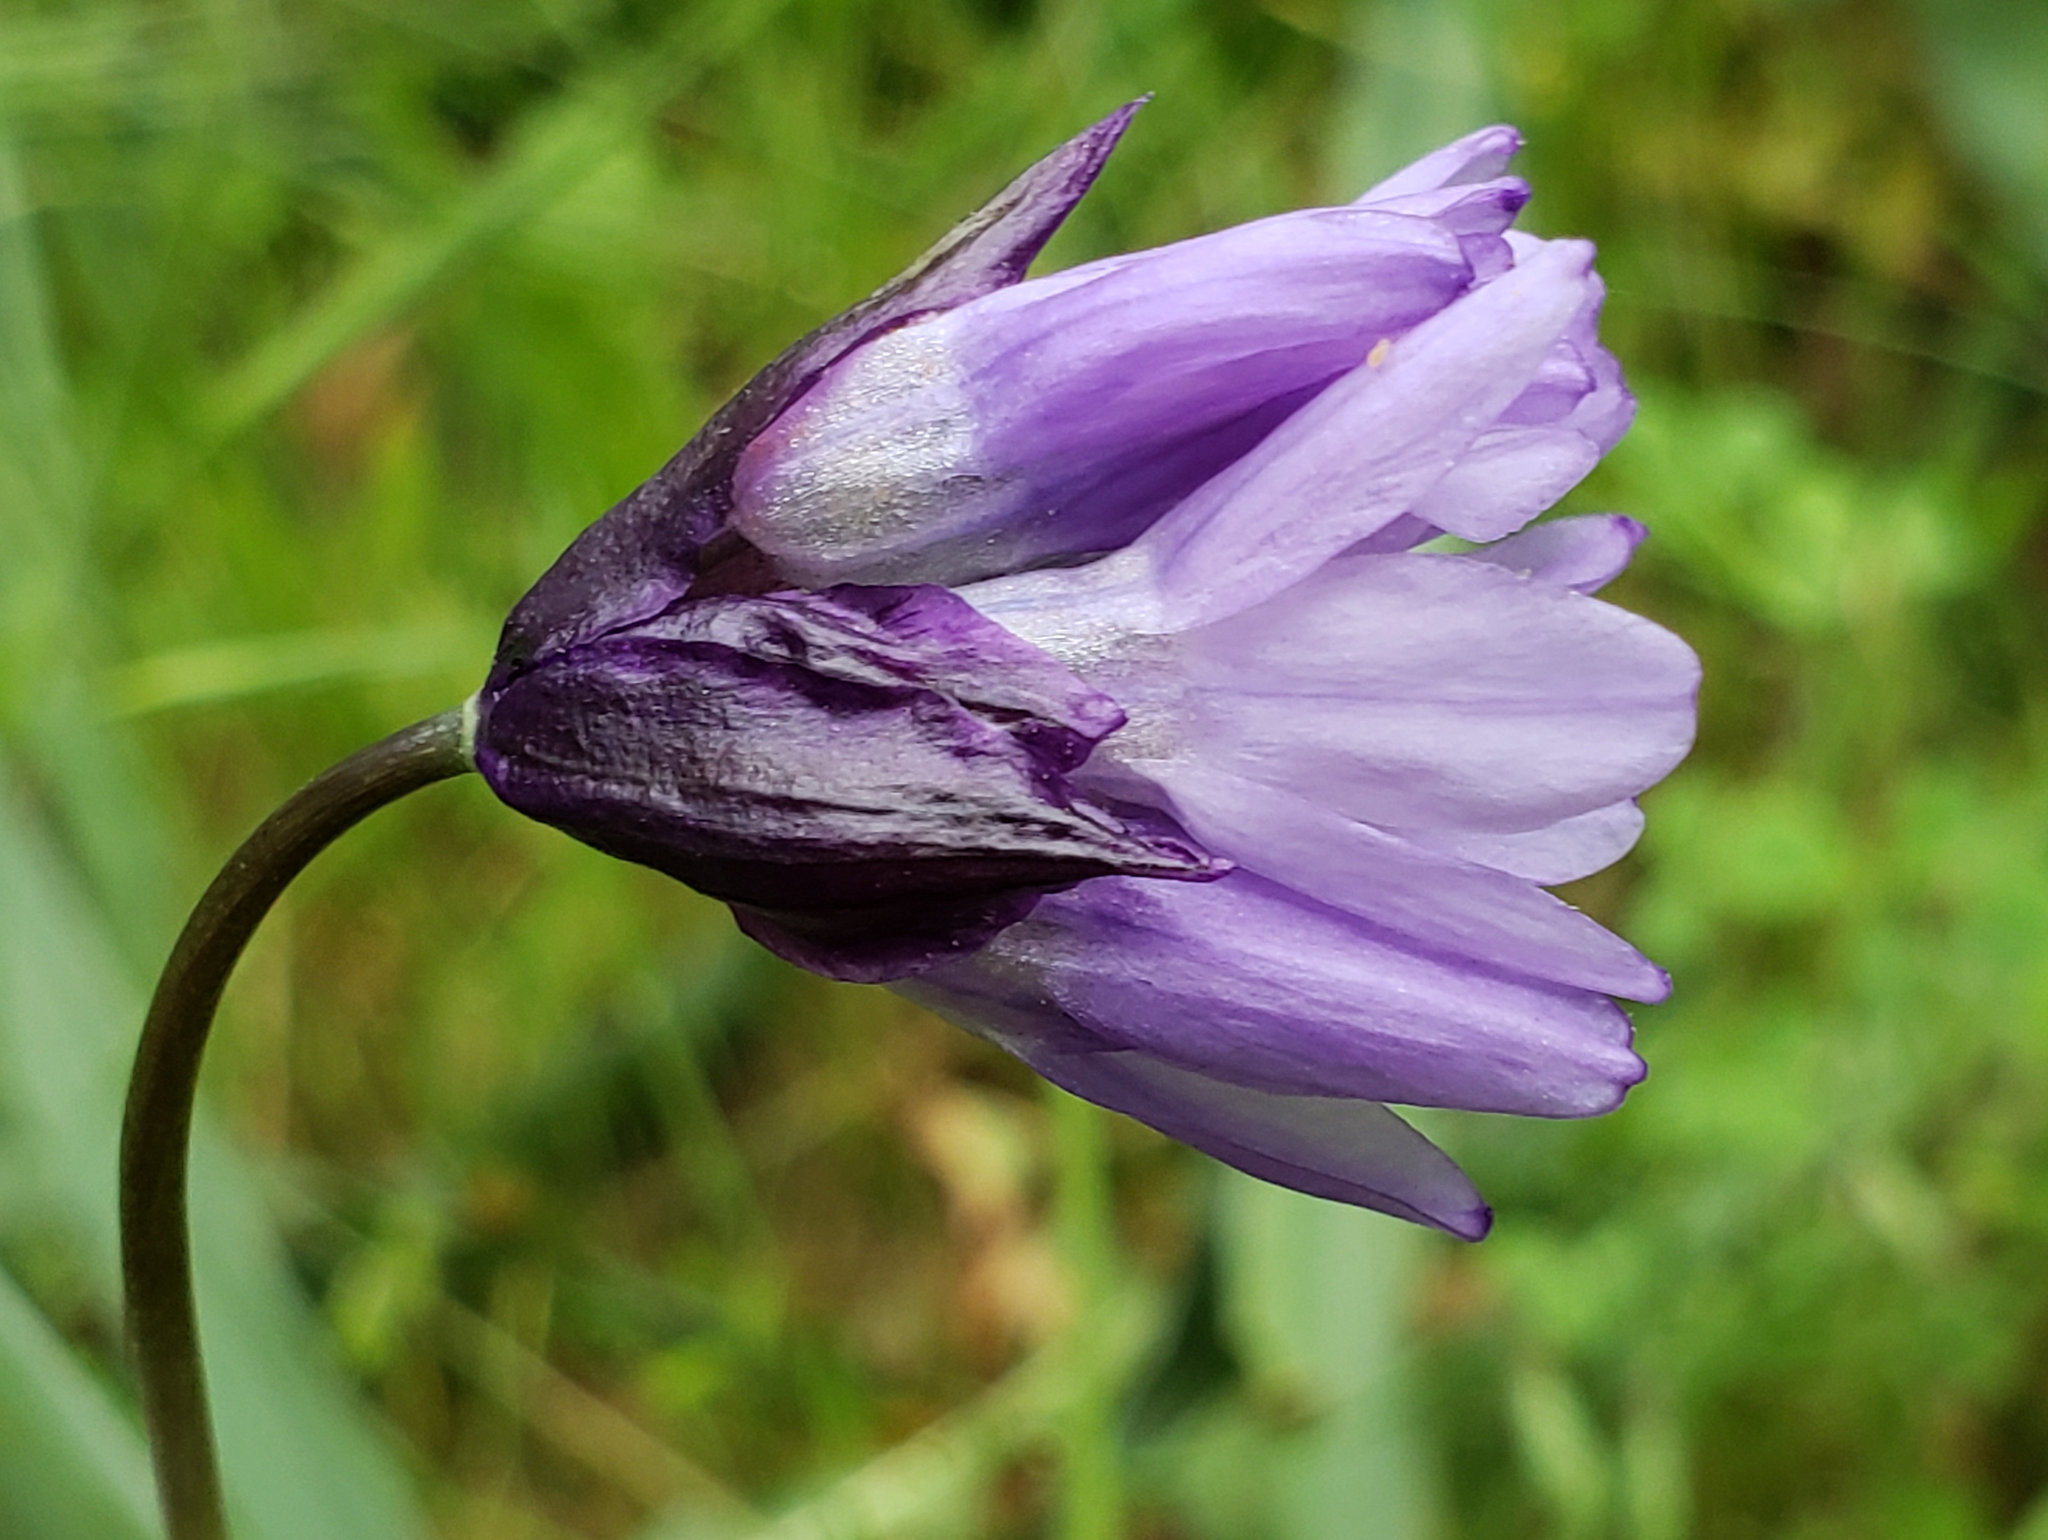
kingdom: Plantae
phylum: Tracheophyta
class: Liliopsida
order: Asparagales
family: Asparagaceae
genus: Dipterostemon
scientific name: Dipterostemon capitatus
